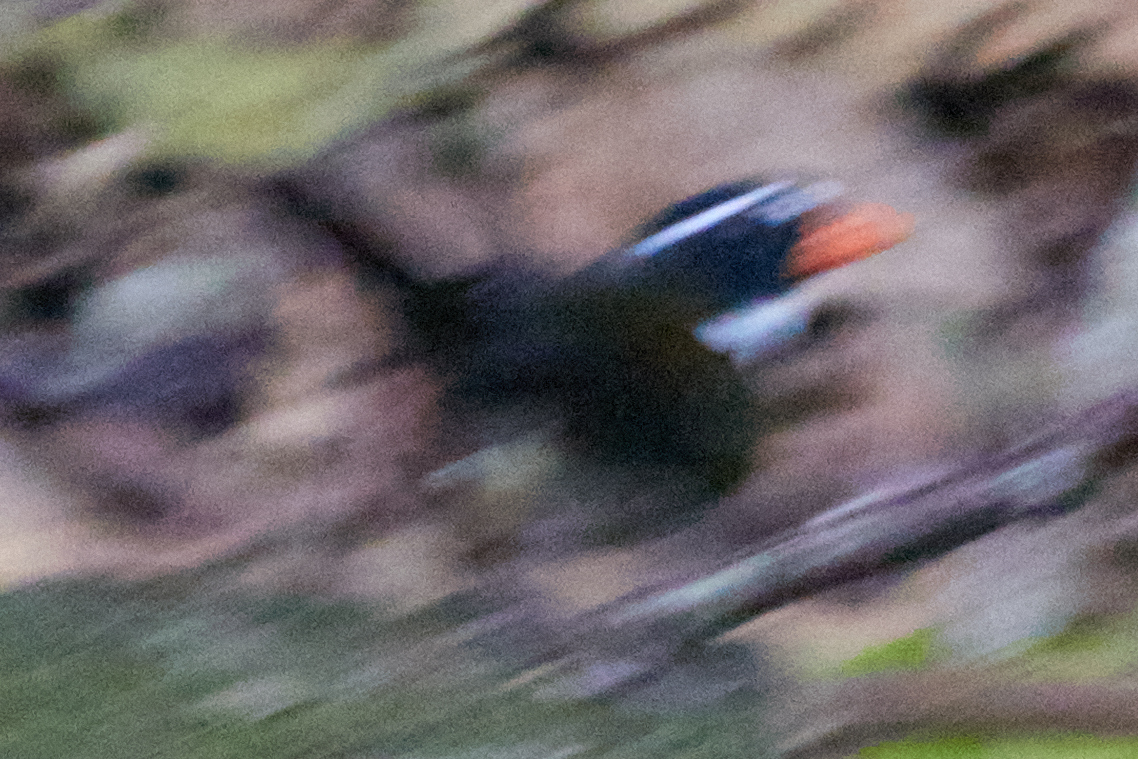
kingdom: Animalia
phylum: Chordata
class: Aves
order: Passeriformes
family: Passerellidae
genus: Arremon
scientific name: Arremon aurantiirostris
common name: Orange-billed sparrow
